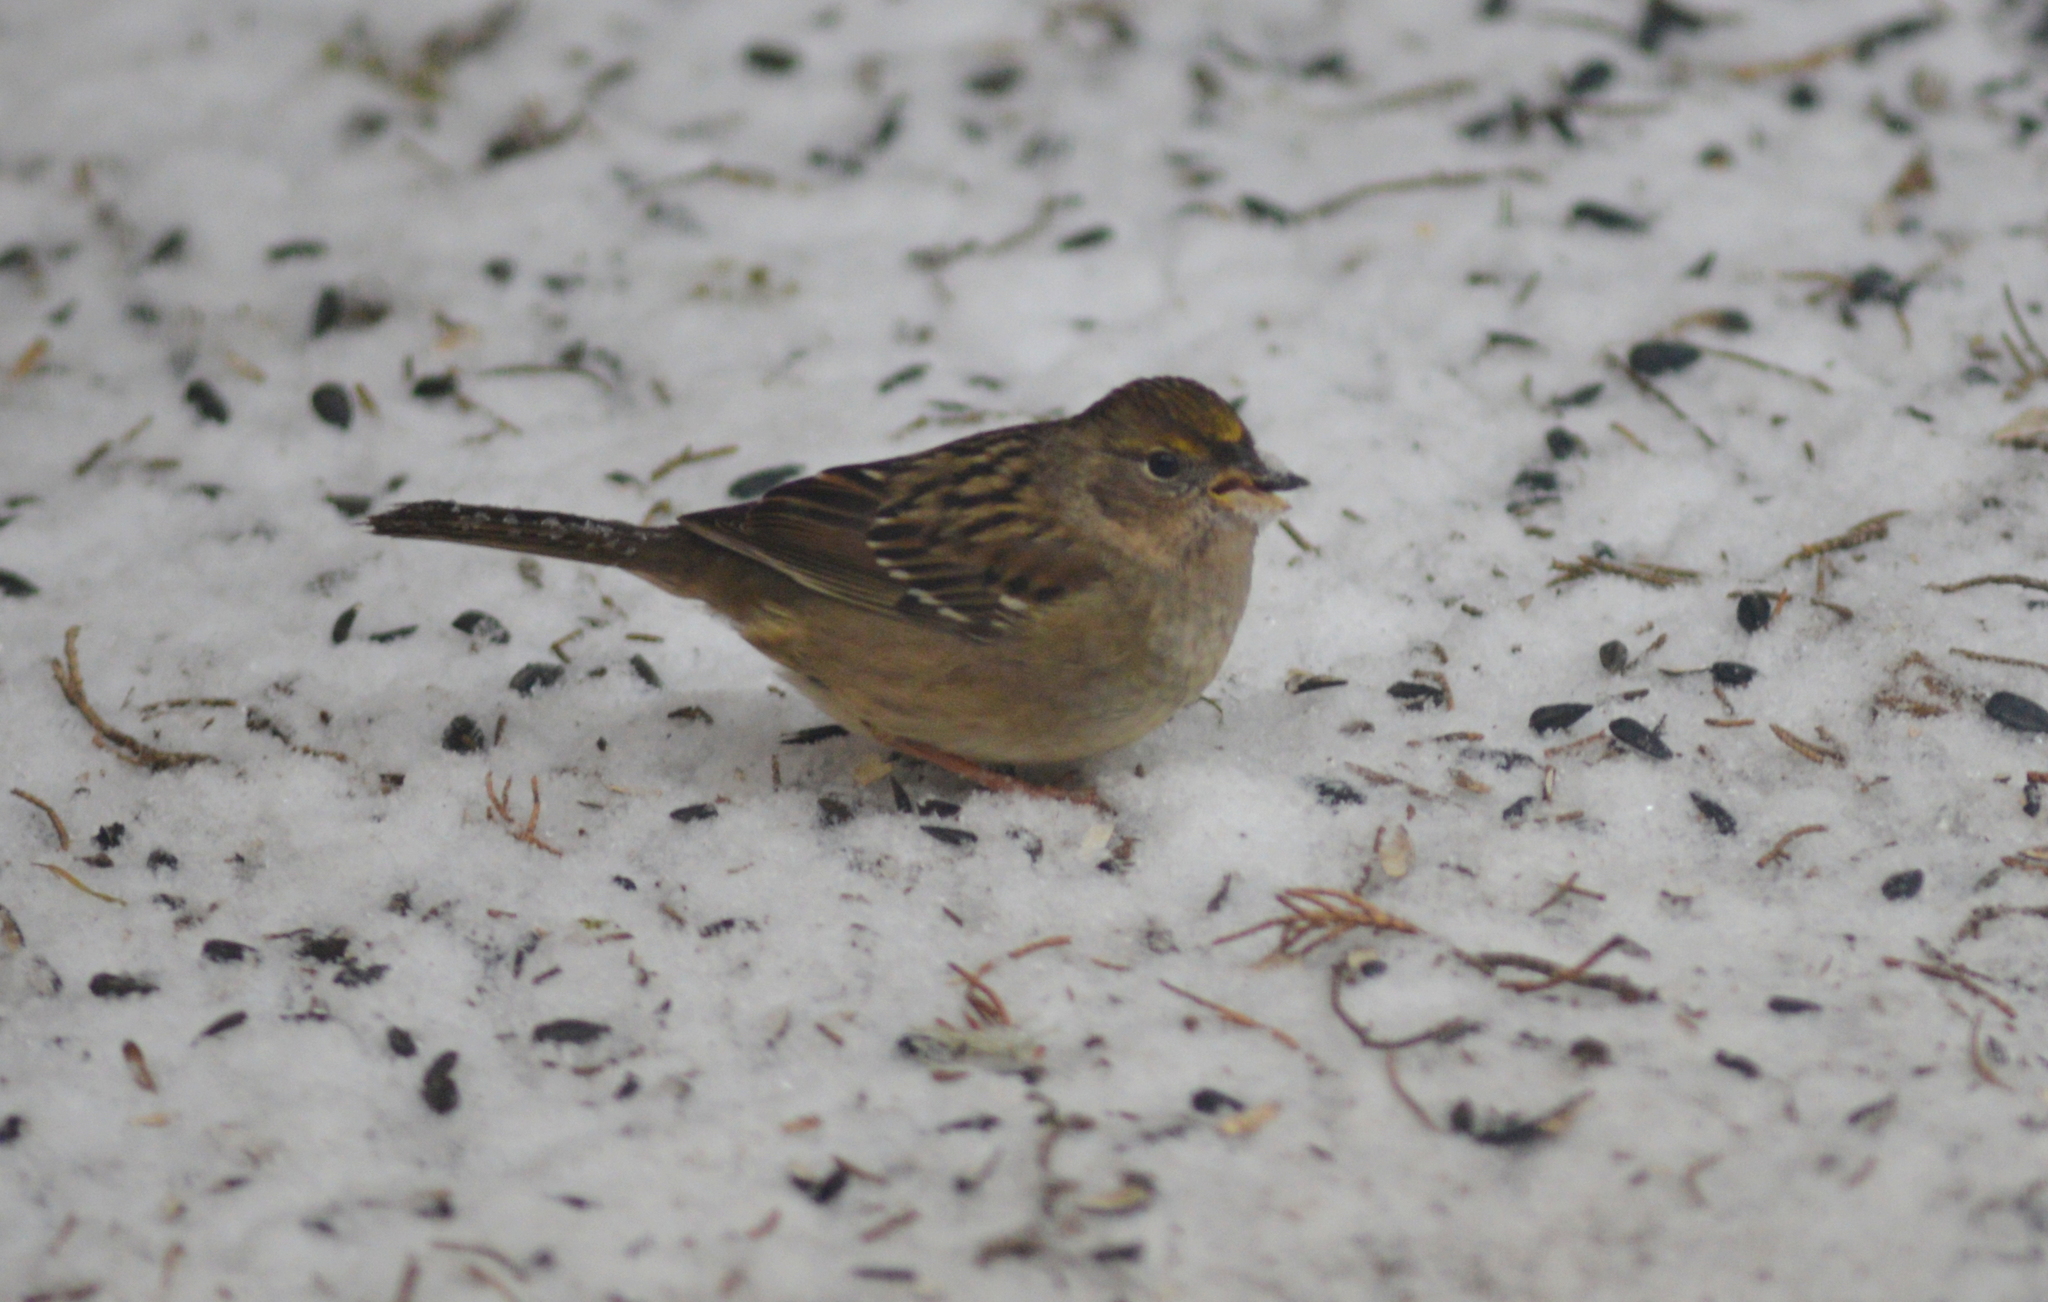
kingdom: Animalia
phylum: Chordata
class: Aves
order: Passeriformes
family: Passerellidae
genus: Zonotrichia
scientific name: Zonotrichia atricapilla
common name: Golden-crowned sparrow
